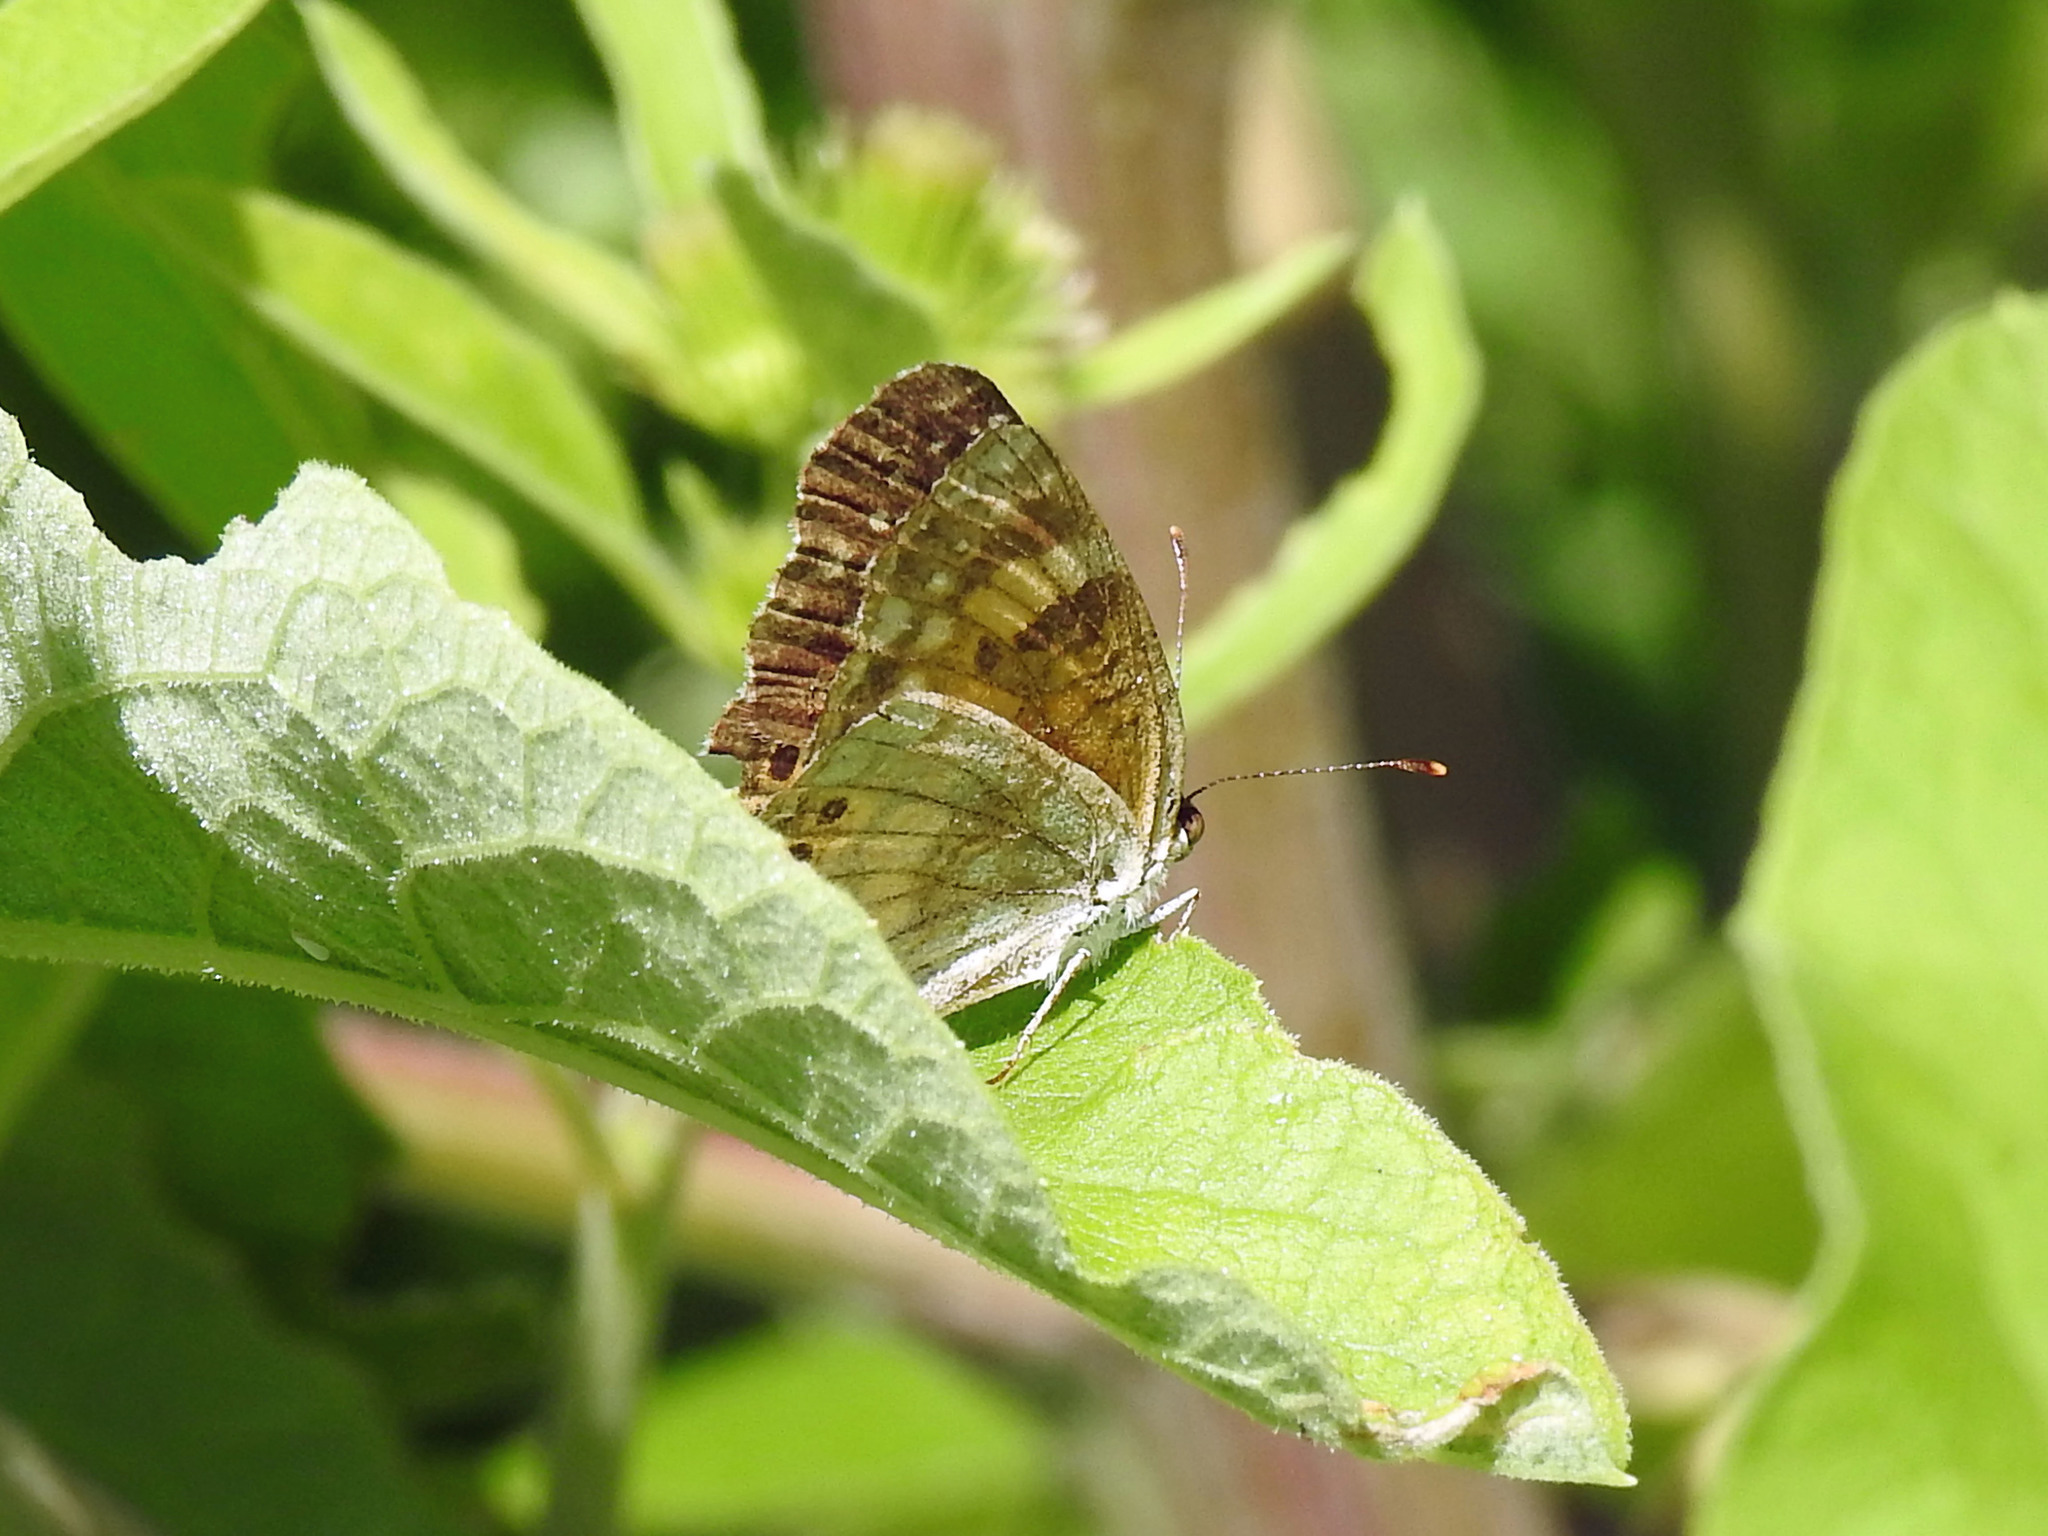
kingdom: Animalia
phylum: Arthropoda
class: Insecta
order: Lepidoptera
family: Nymphalidae
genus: Chlosyne
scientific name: Chlosyne nycteis
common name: Silvery checkerspot
